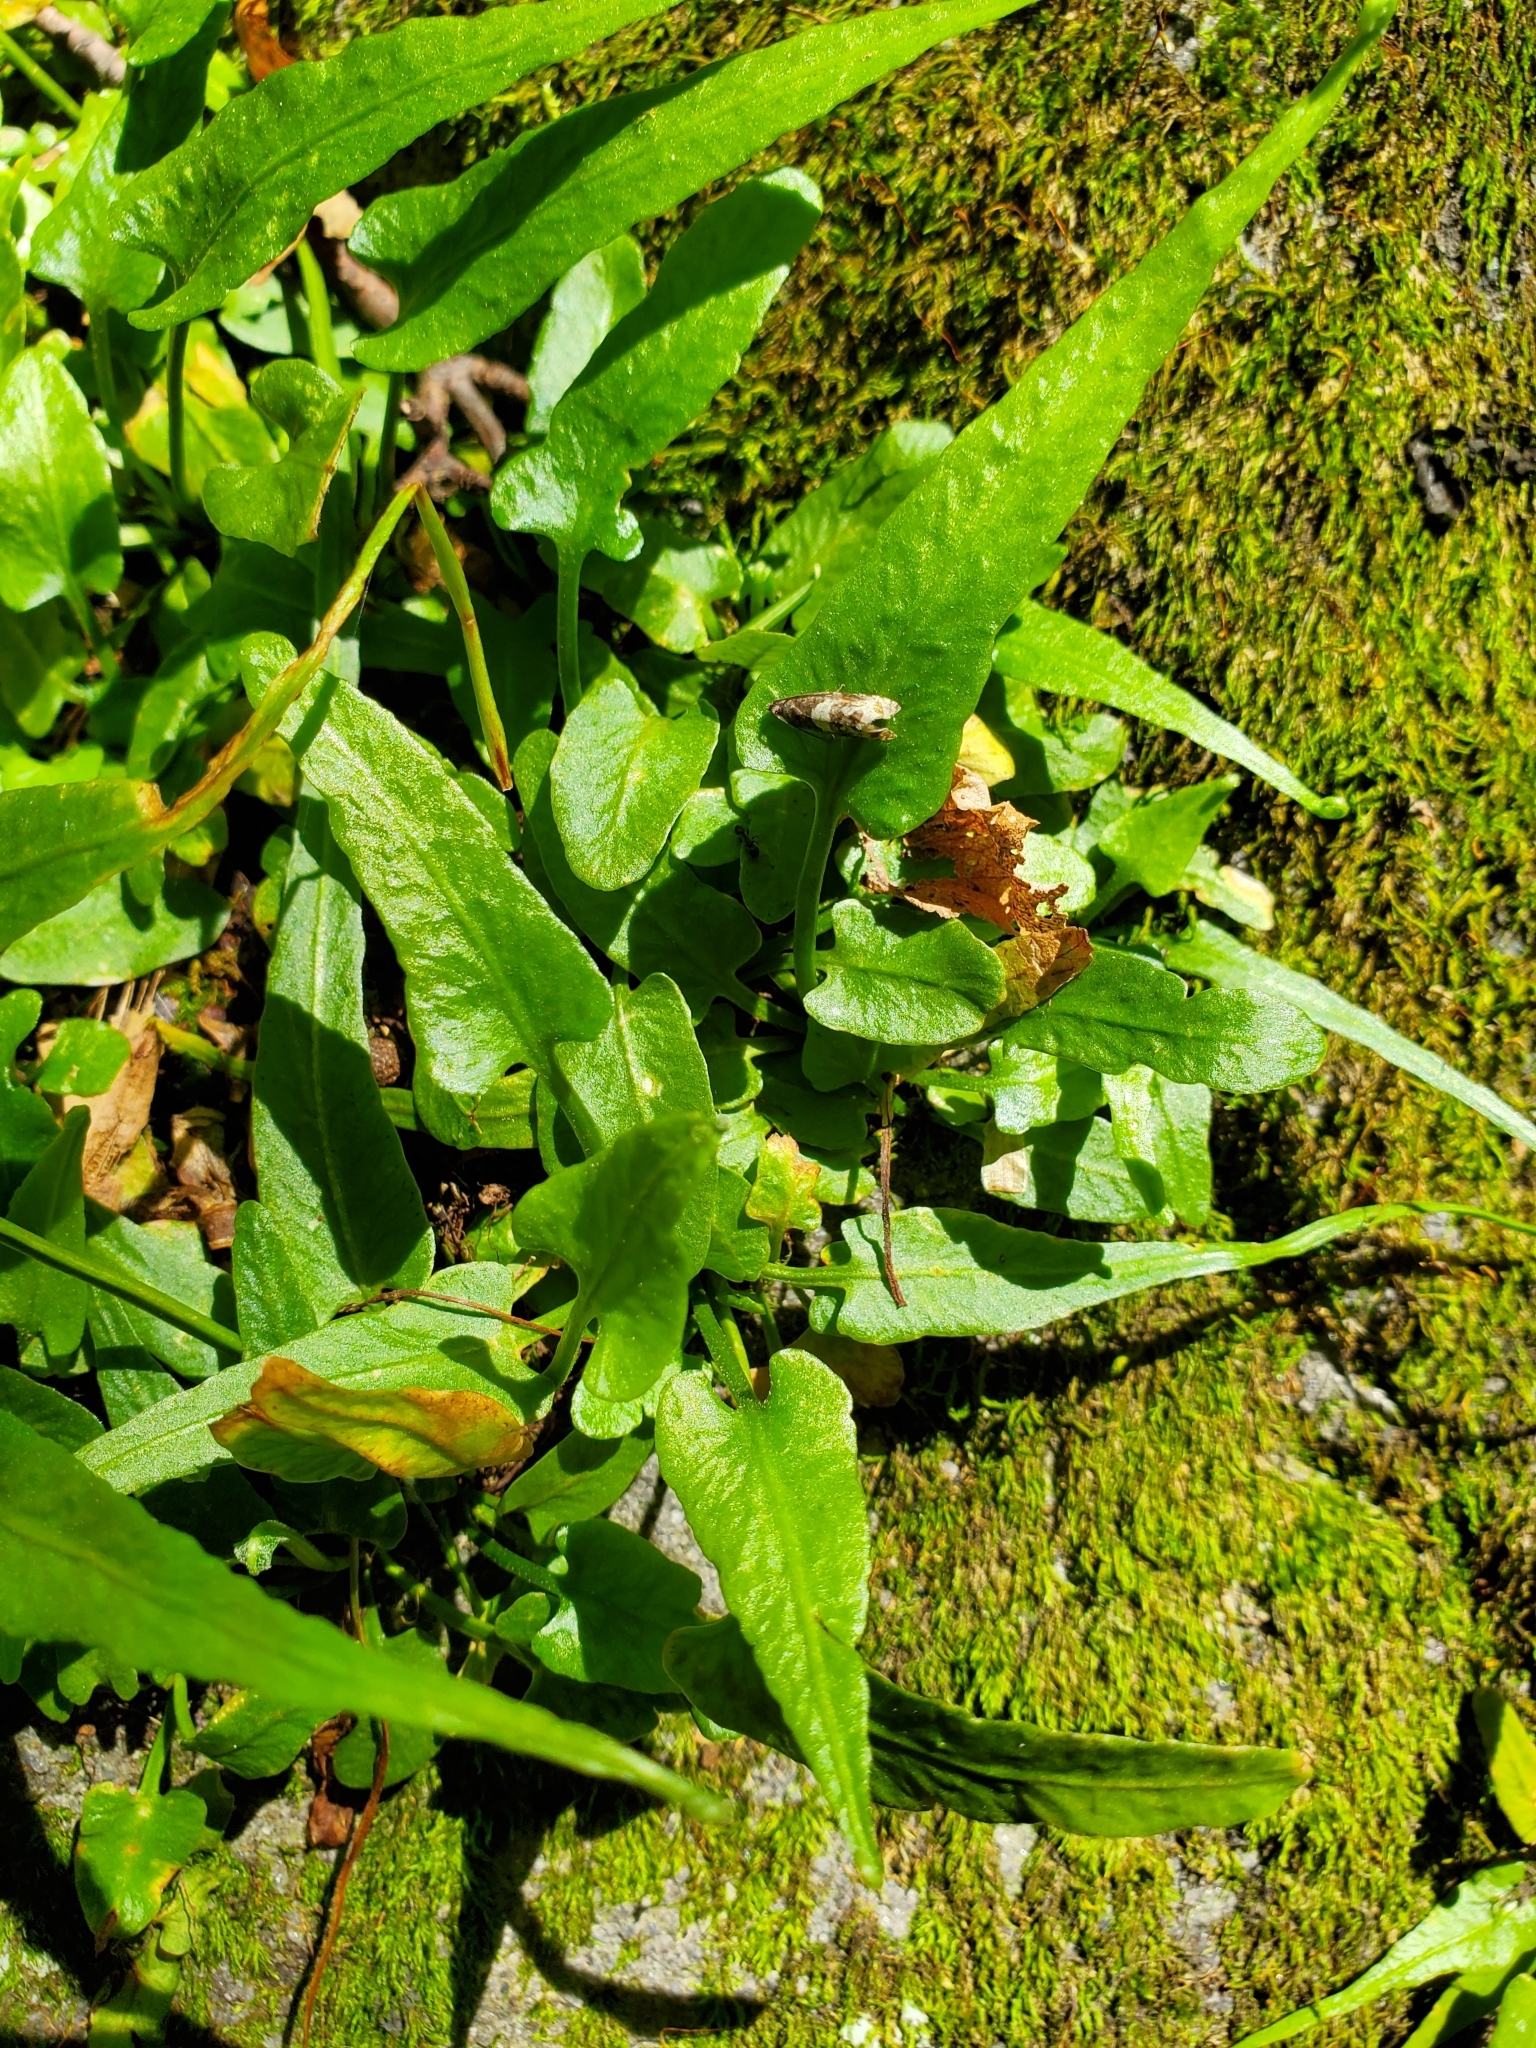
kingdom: Plantae
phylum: Tracheophyta
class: Polypodiopsida
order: Polypodiales
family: Aspleniaceae
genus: Asplenium
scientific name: Asplenium rhizophyllum
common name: Walking fern
